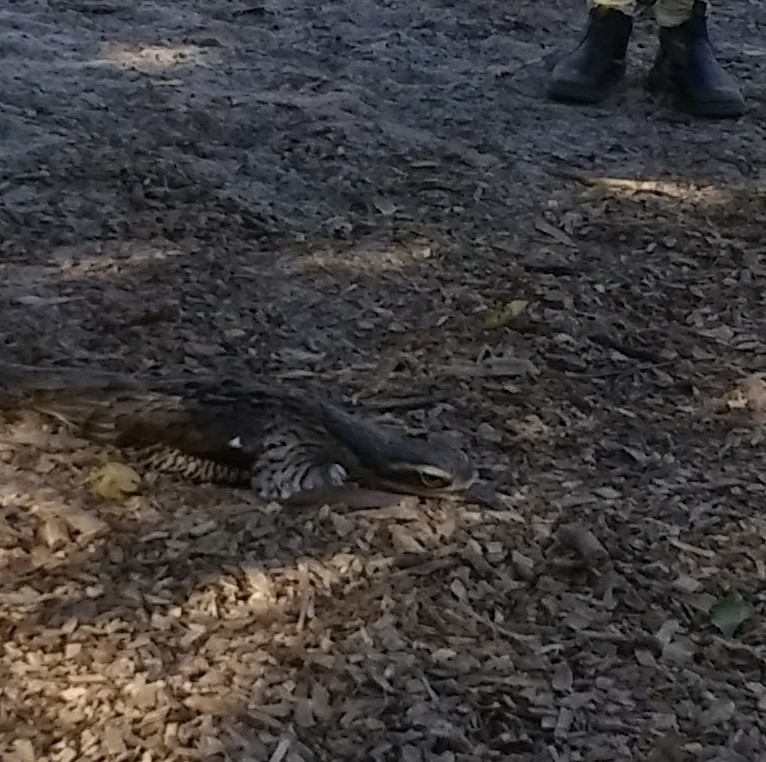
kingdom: Animalia
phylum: Chordata
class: Aves
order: Charadriiformes
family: Burhinidae
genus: Burhinus
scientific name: Burhinus grallarius
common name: Bush stone-curlew
